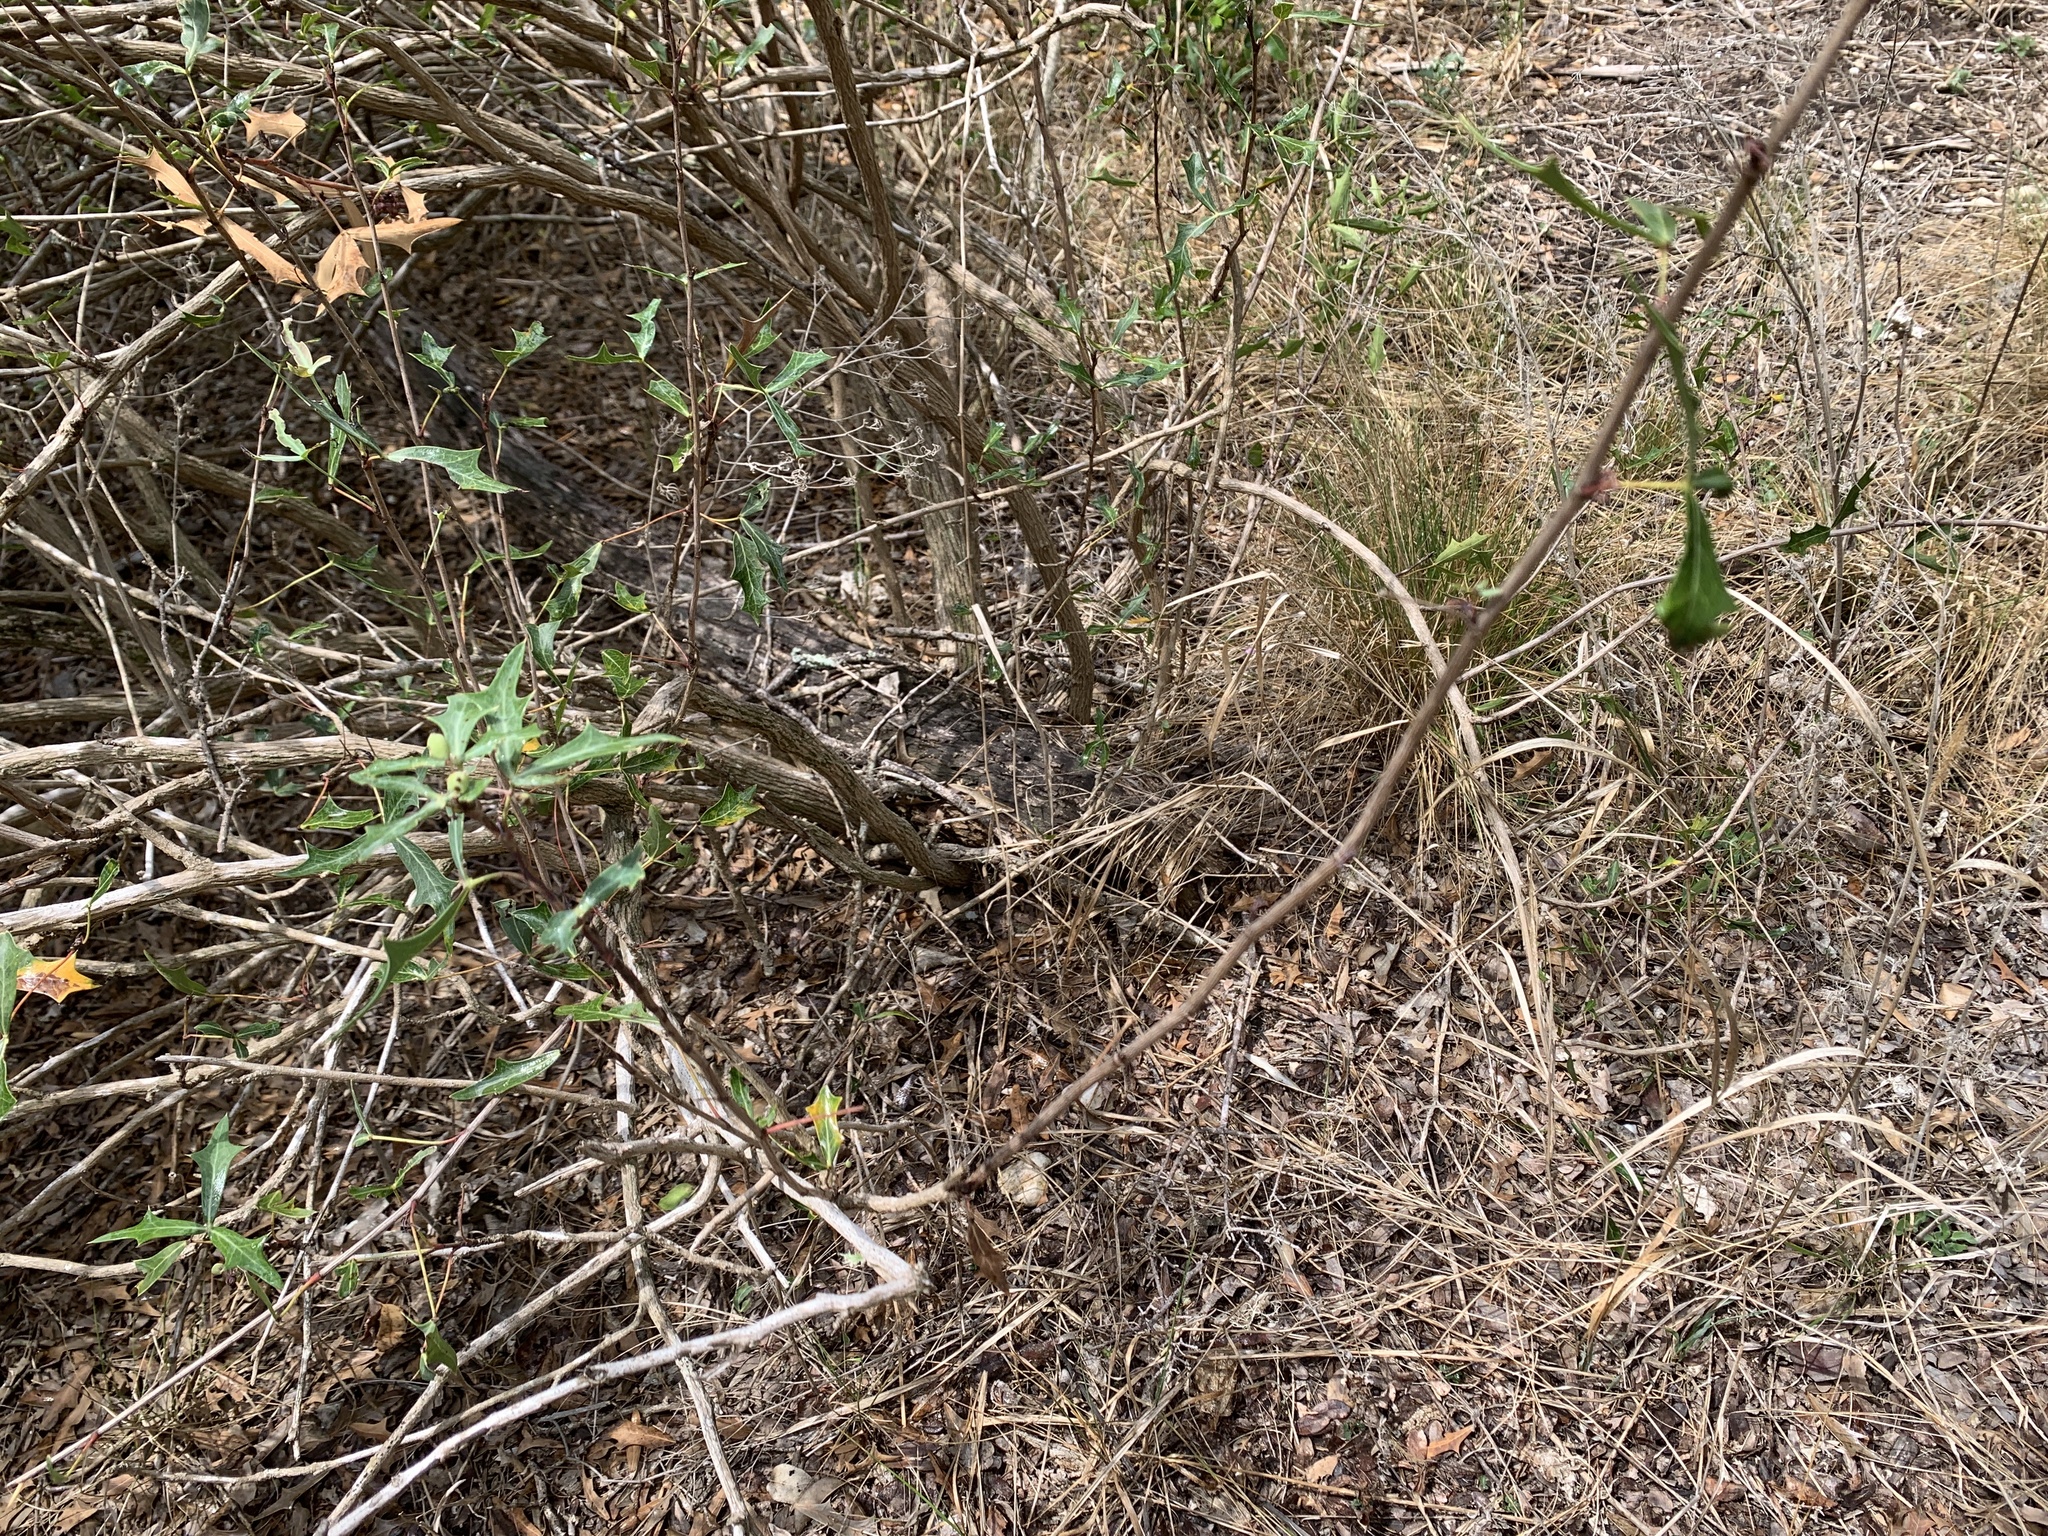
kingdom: Animalia
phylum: Chordata
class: Squamata
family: Teiidae
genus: Aspidoscelis
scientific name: Aspidoscelis gularis
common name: Eastern spotted whiptail
